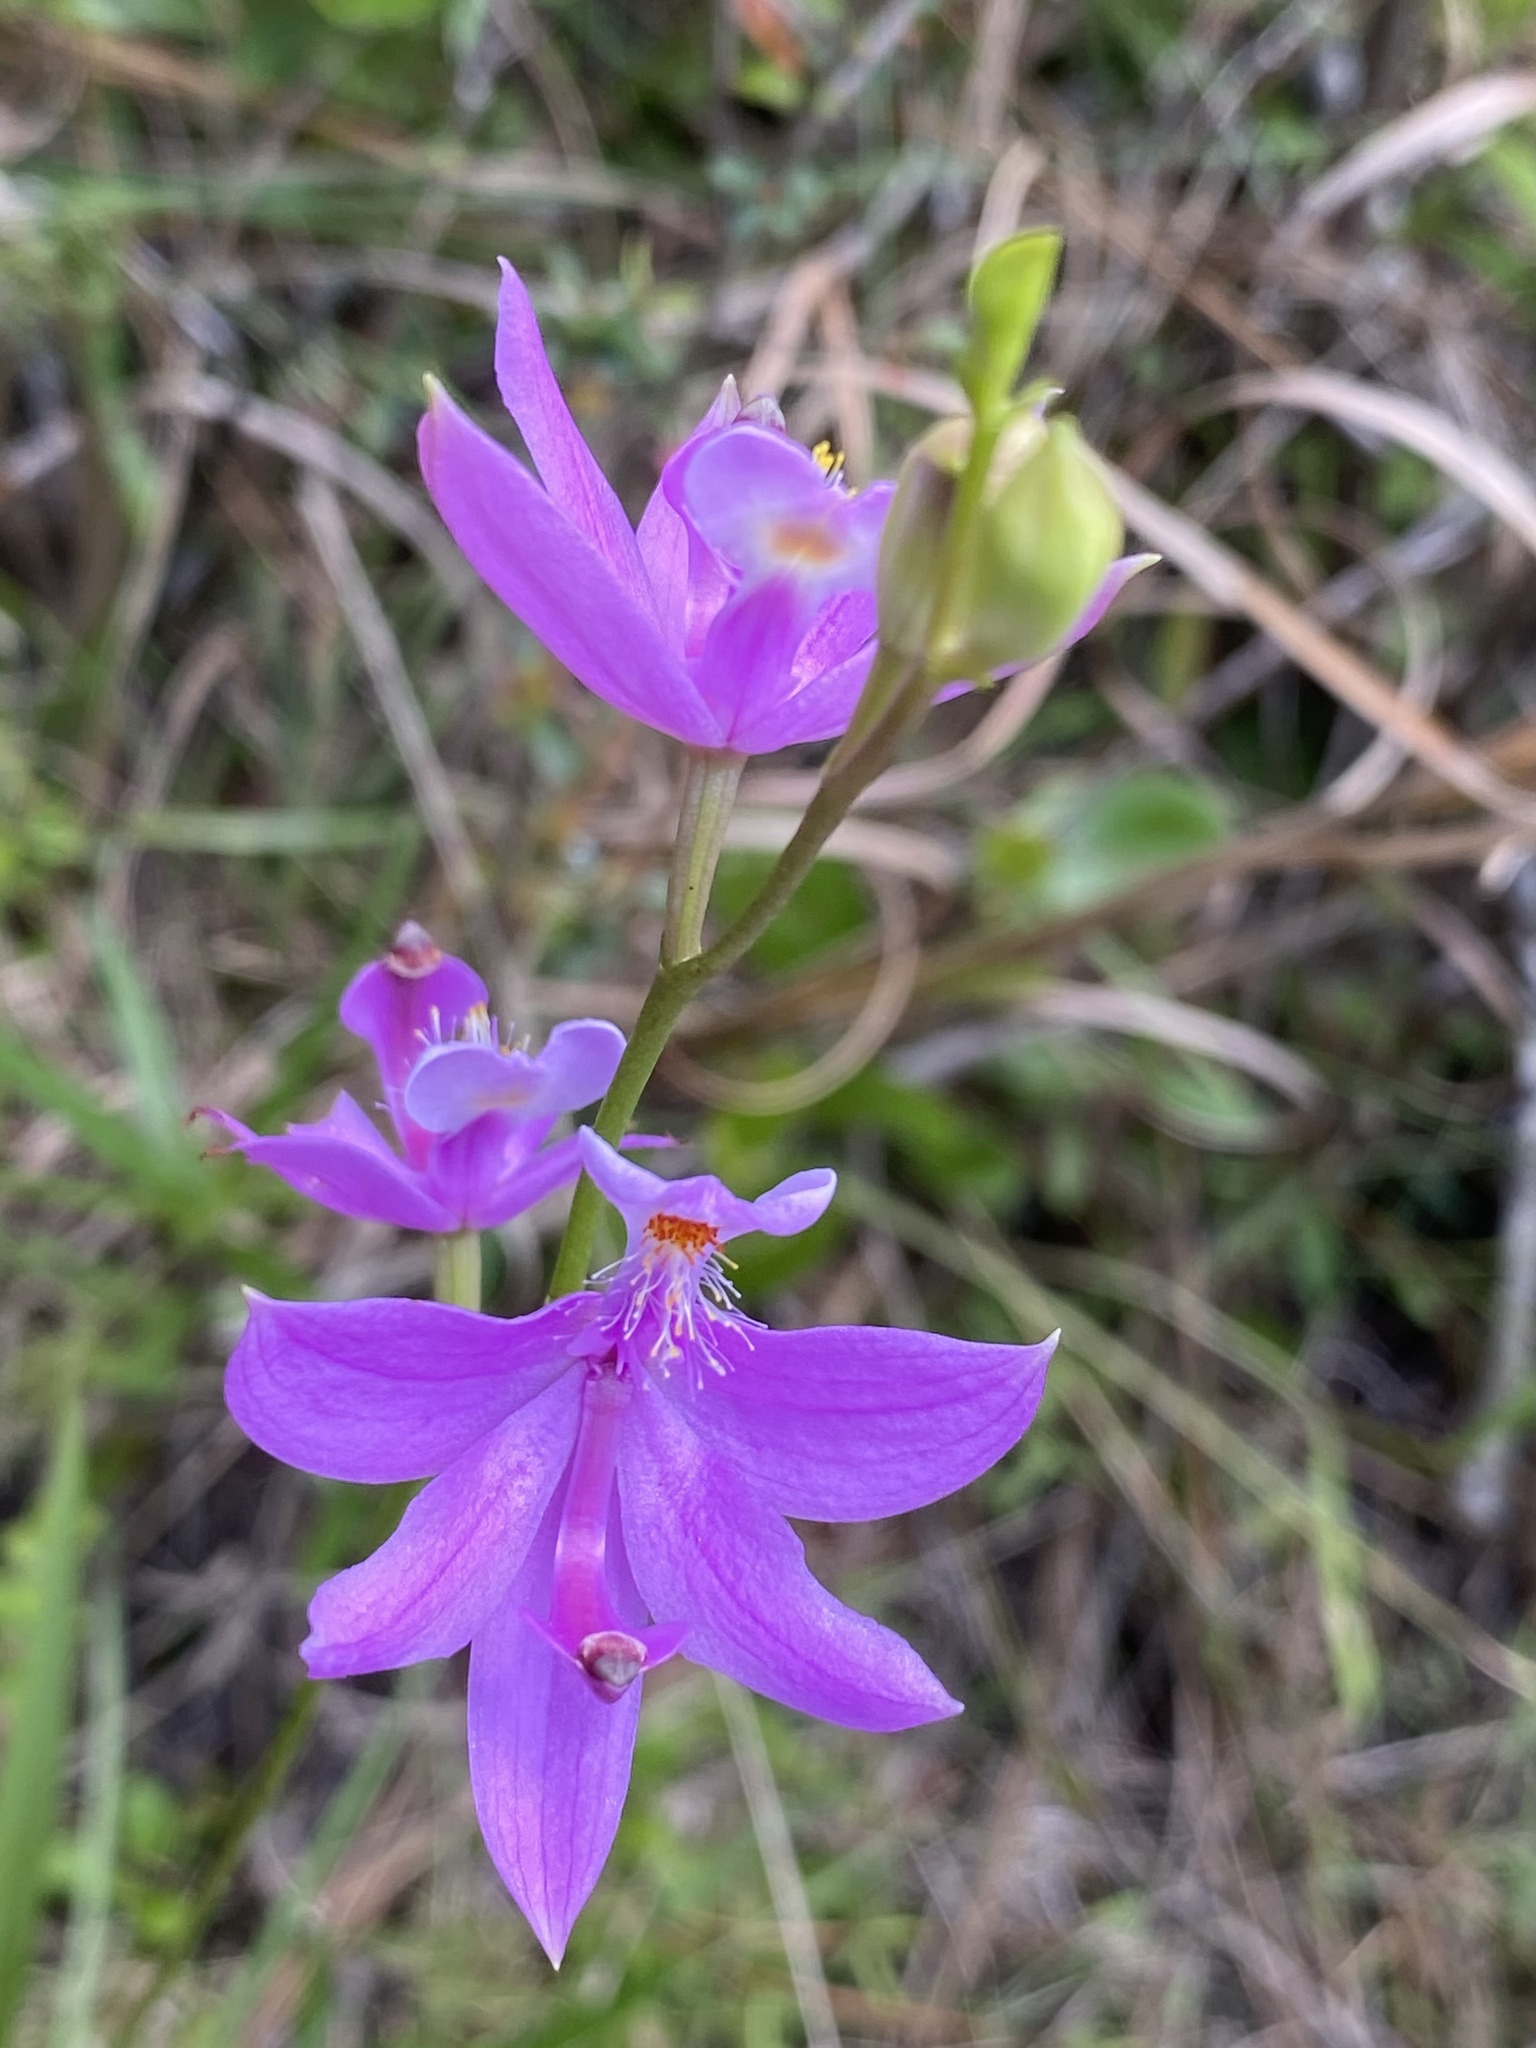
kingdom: Plantae
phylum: Tracheophyta
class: Liliopsida
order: Asparagales
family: Orchidaceae
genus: Calopogon
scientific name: Calopogon tuberosus
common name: Grass-pink
